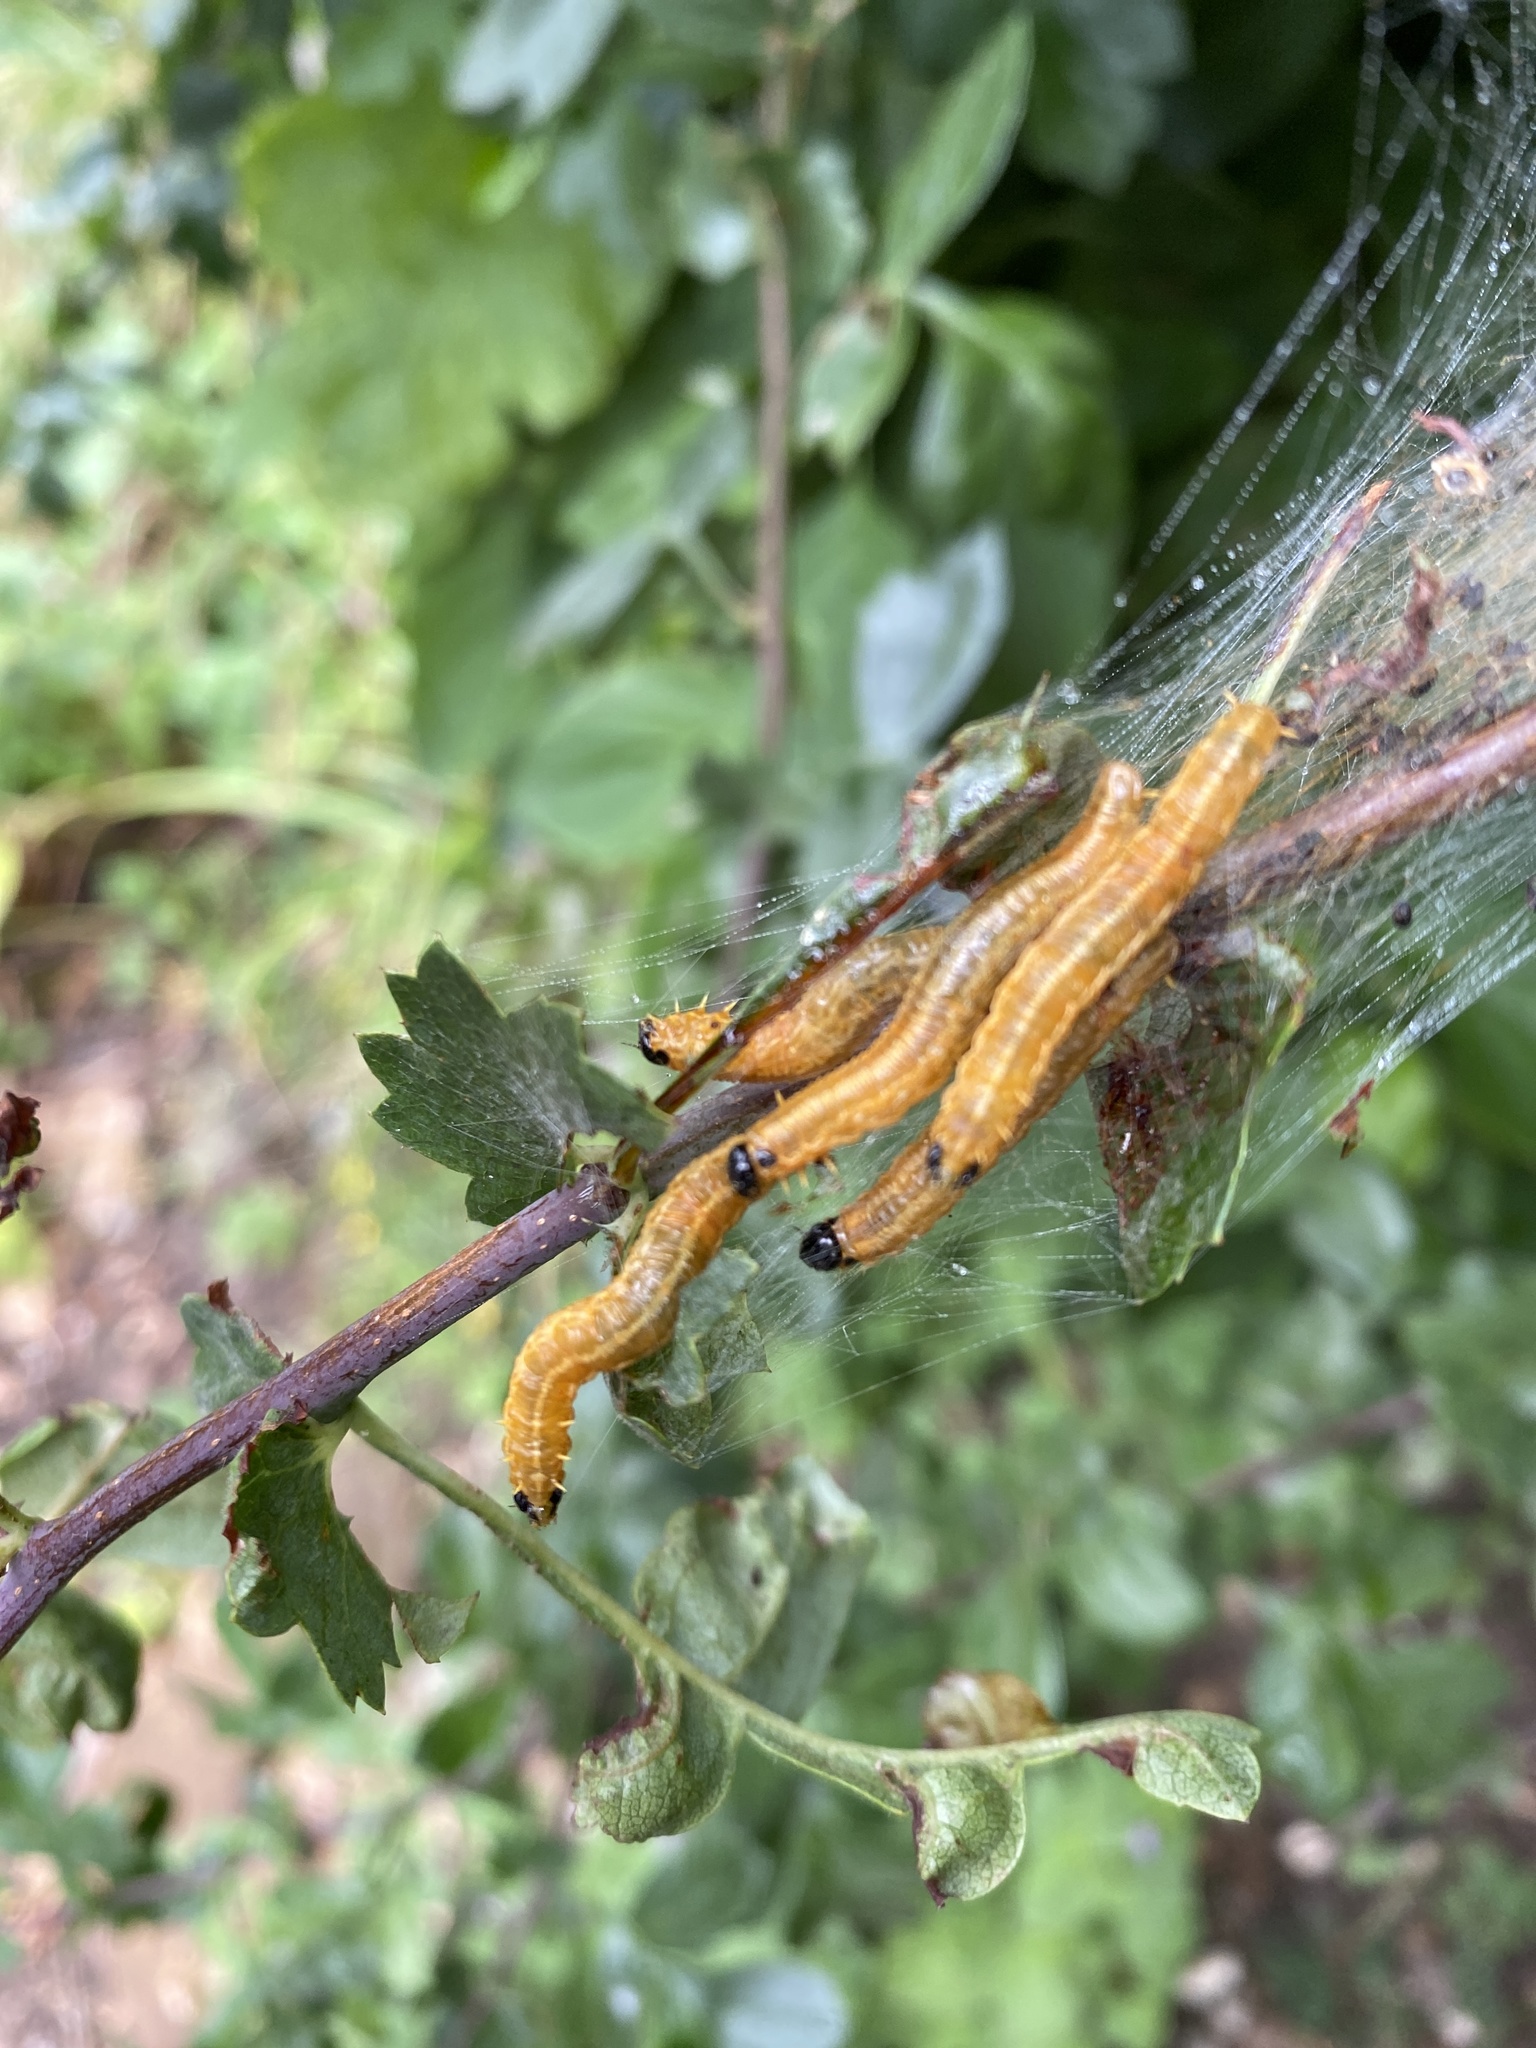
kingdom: Animalia
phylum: Arthropoda
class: Insecta
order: Hymenoptera
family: Pamphiliidae
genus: Neurotoma
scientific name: Neurotoma saltuum
